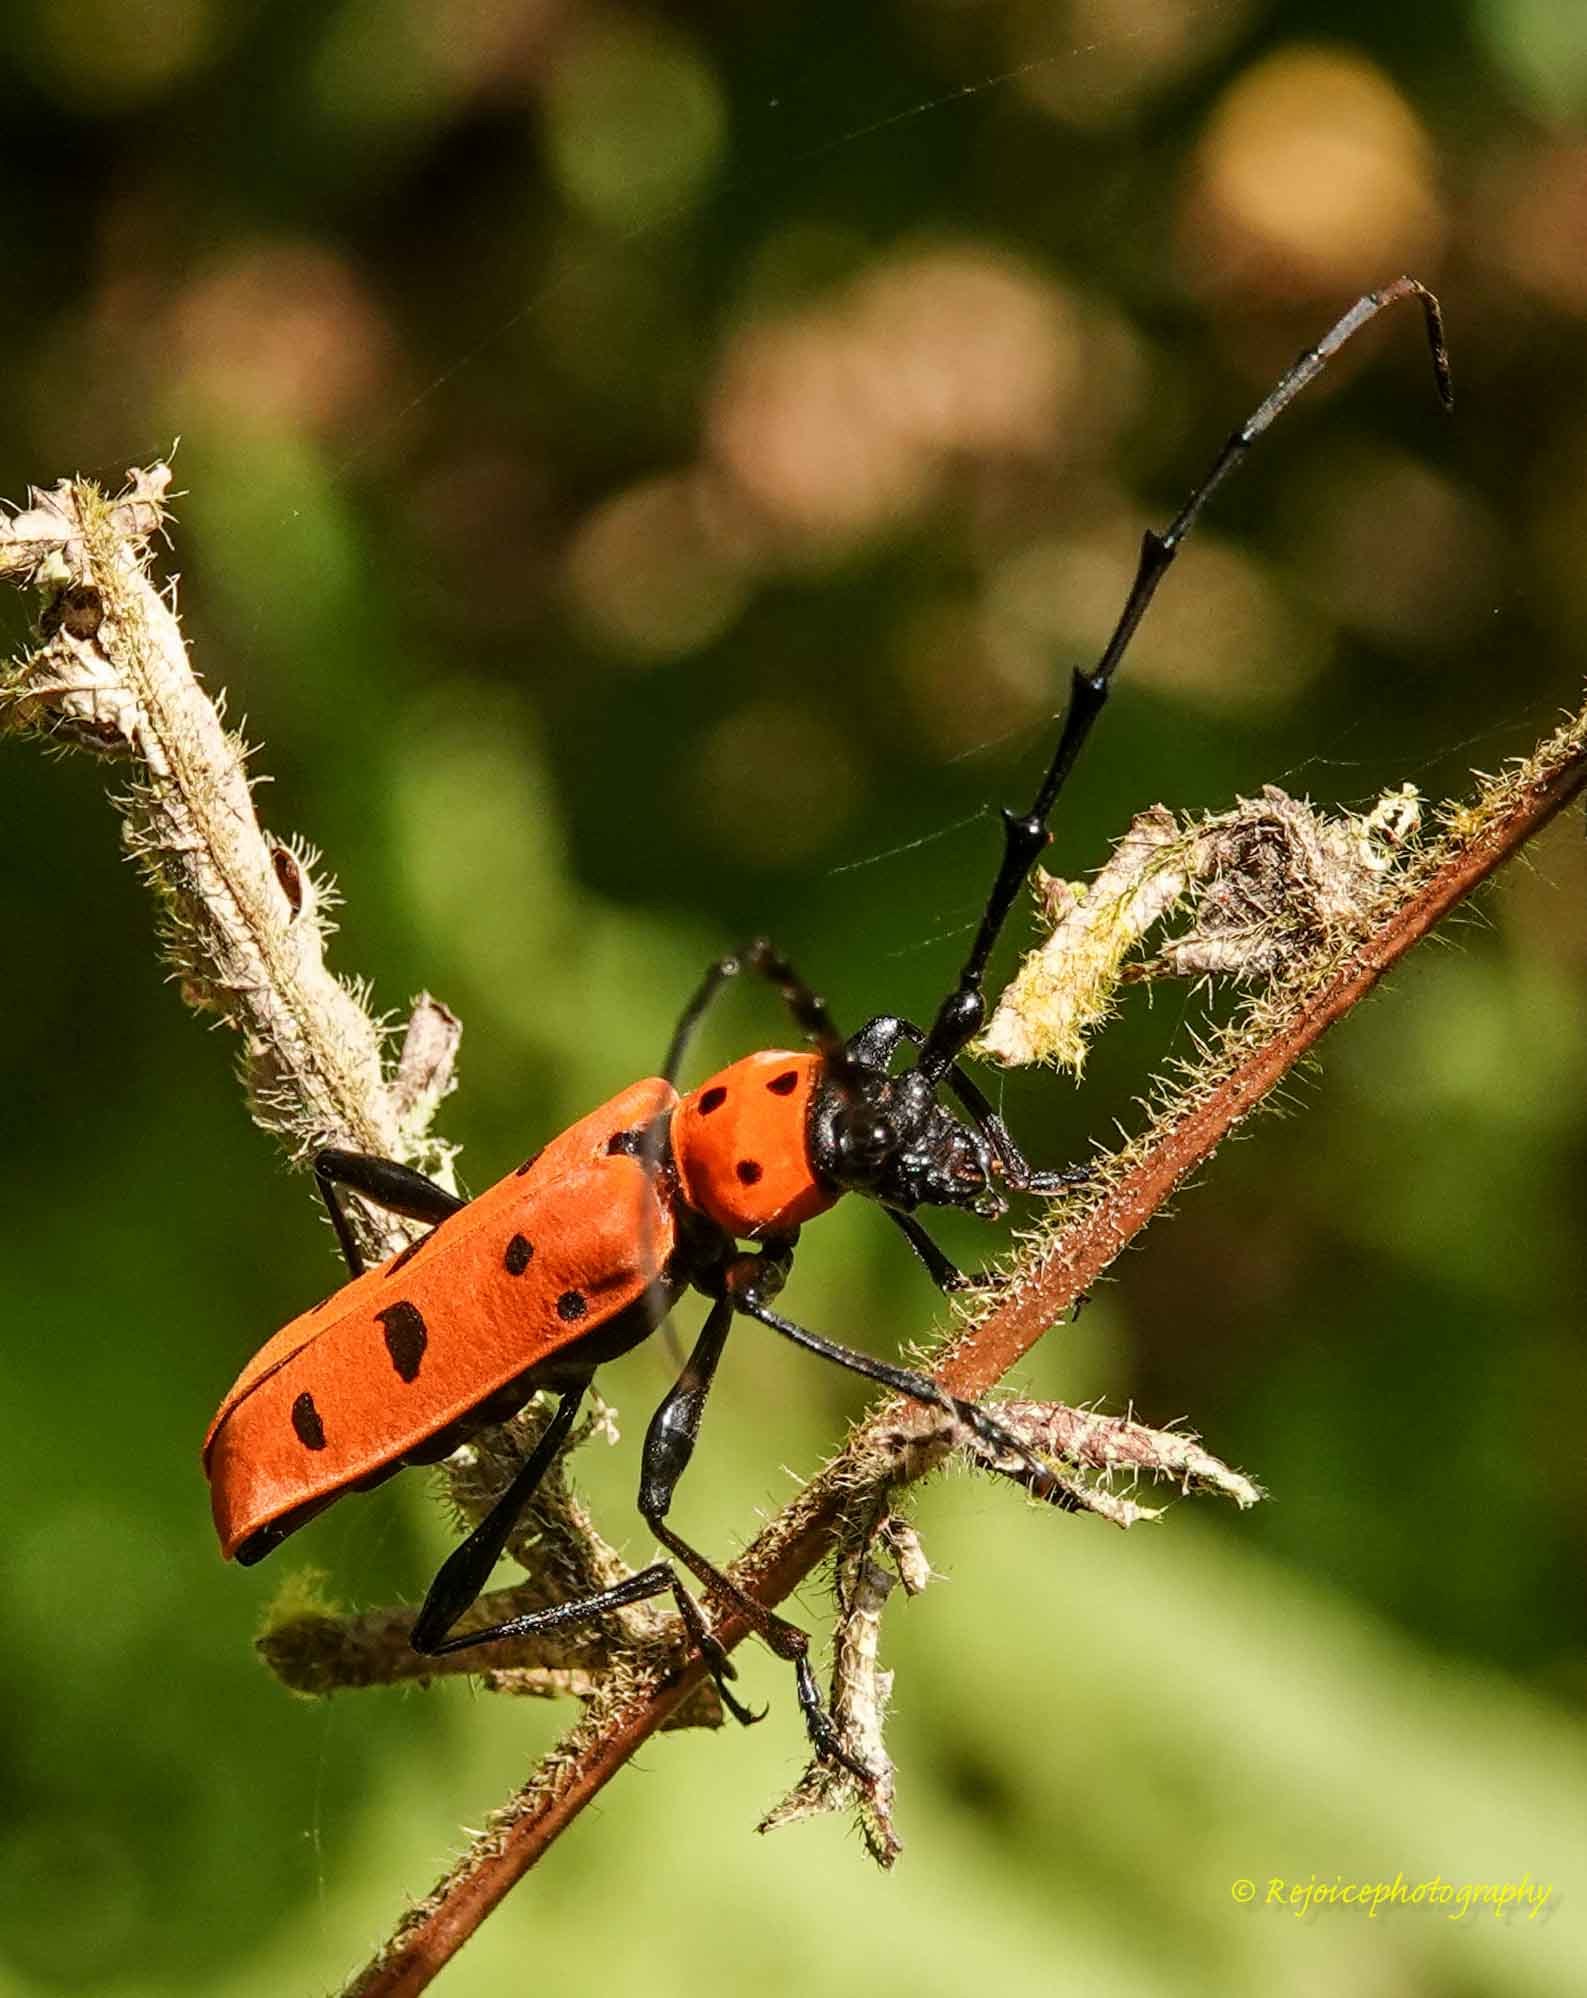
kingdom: Animalia
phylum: Arthropoda
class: Insecta
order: Coleoptera
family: Cerambycidae
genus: Rosalia
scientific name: Rosalia decempunctata
